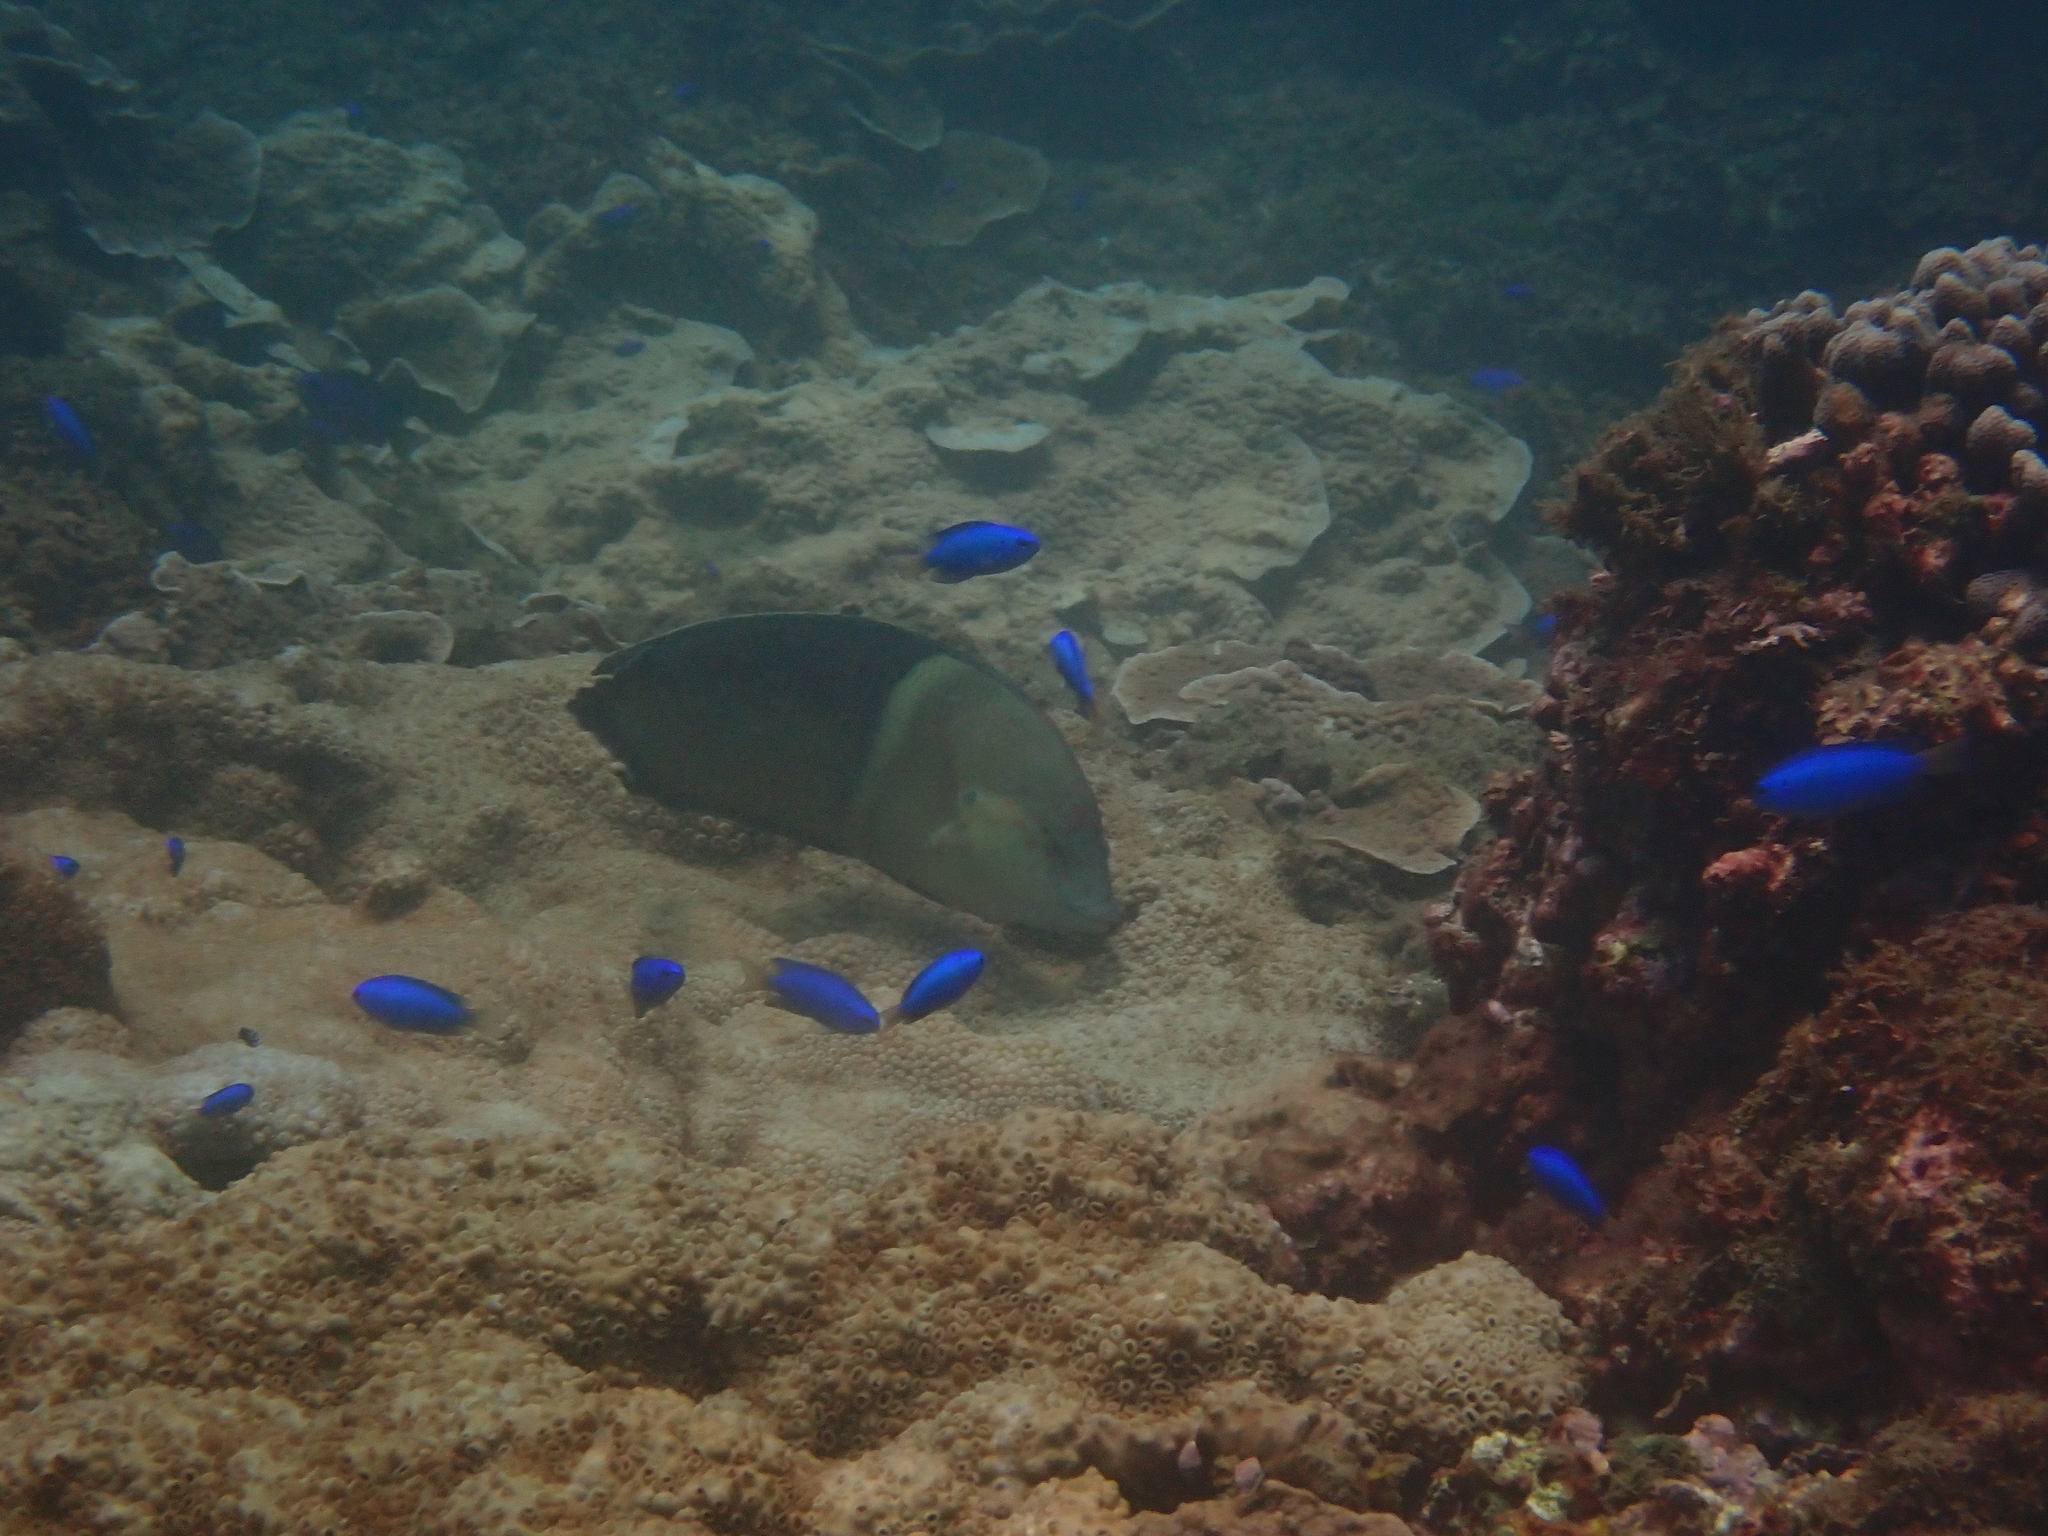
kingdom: Animalia
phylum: Chordata
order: Perciformes
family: Labridae
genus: Coris
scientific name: Coris aygula
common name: Clown coris
